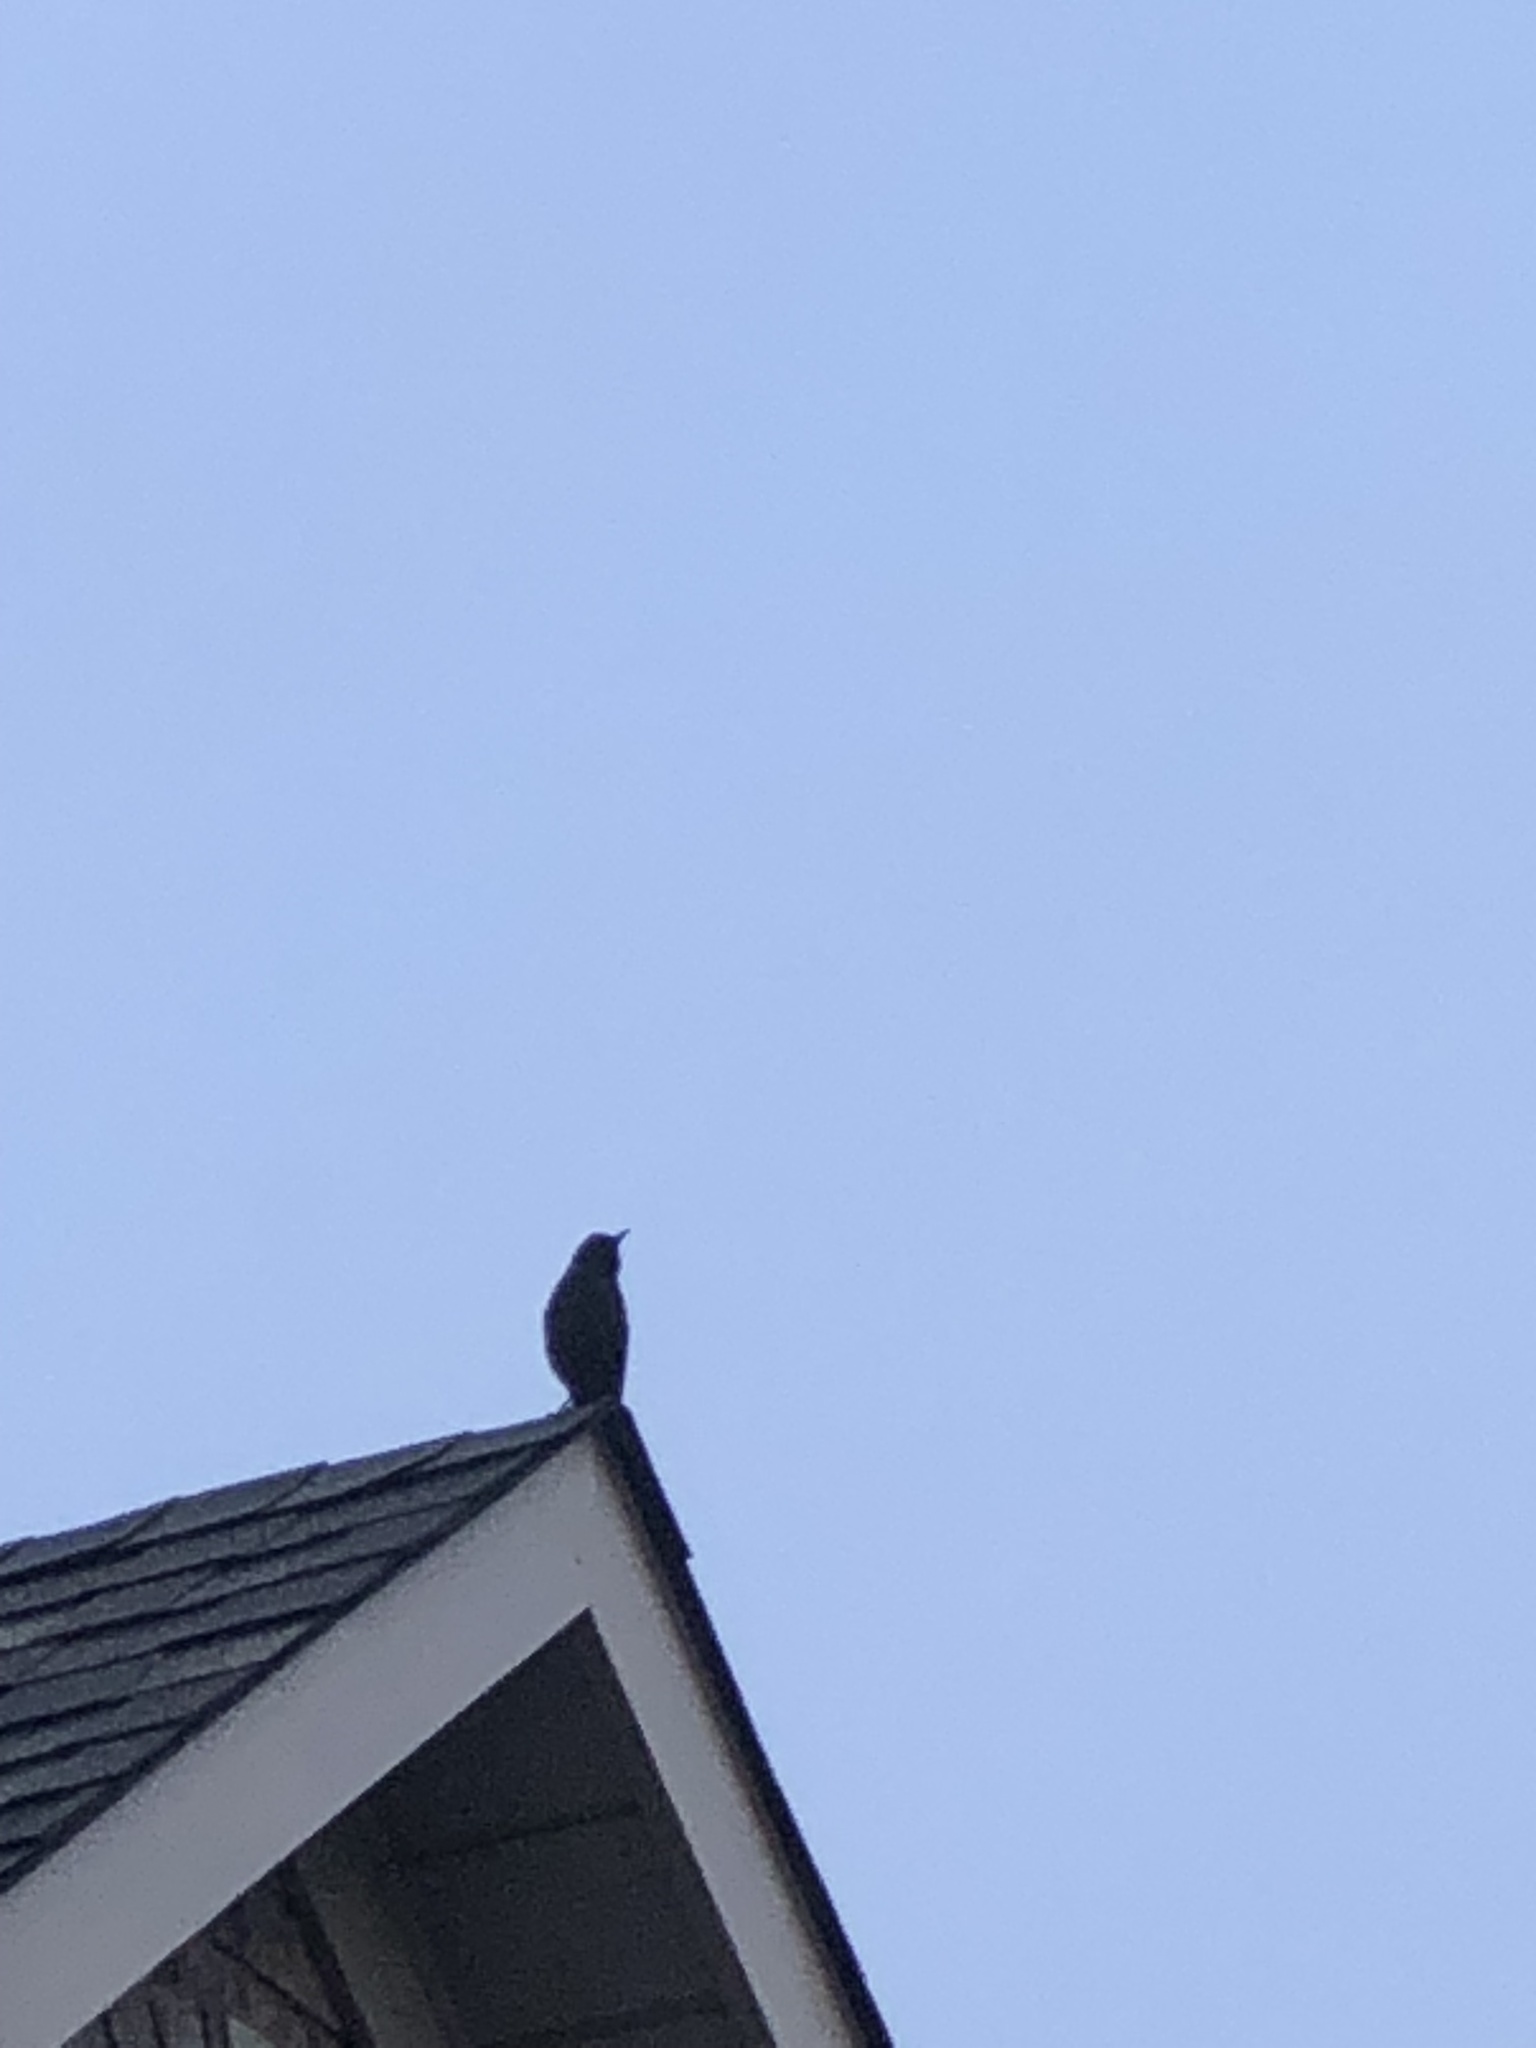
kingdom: Animalia
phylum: Chordata
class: Aves
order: Passeriformes
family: Sturnidae
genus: Sturnus
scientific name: Sturnus vulgaris
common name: Common starling
